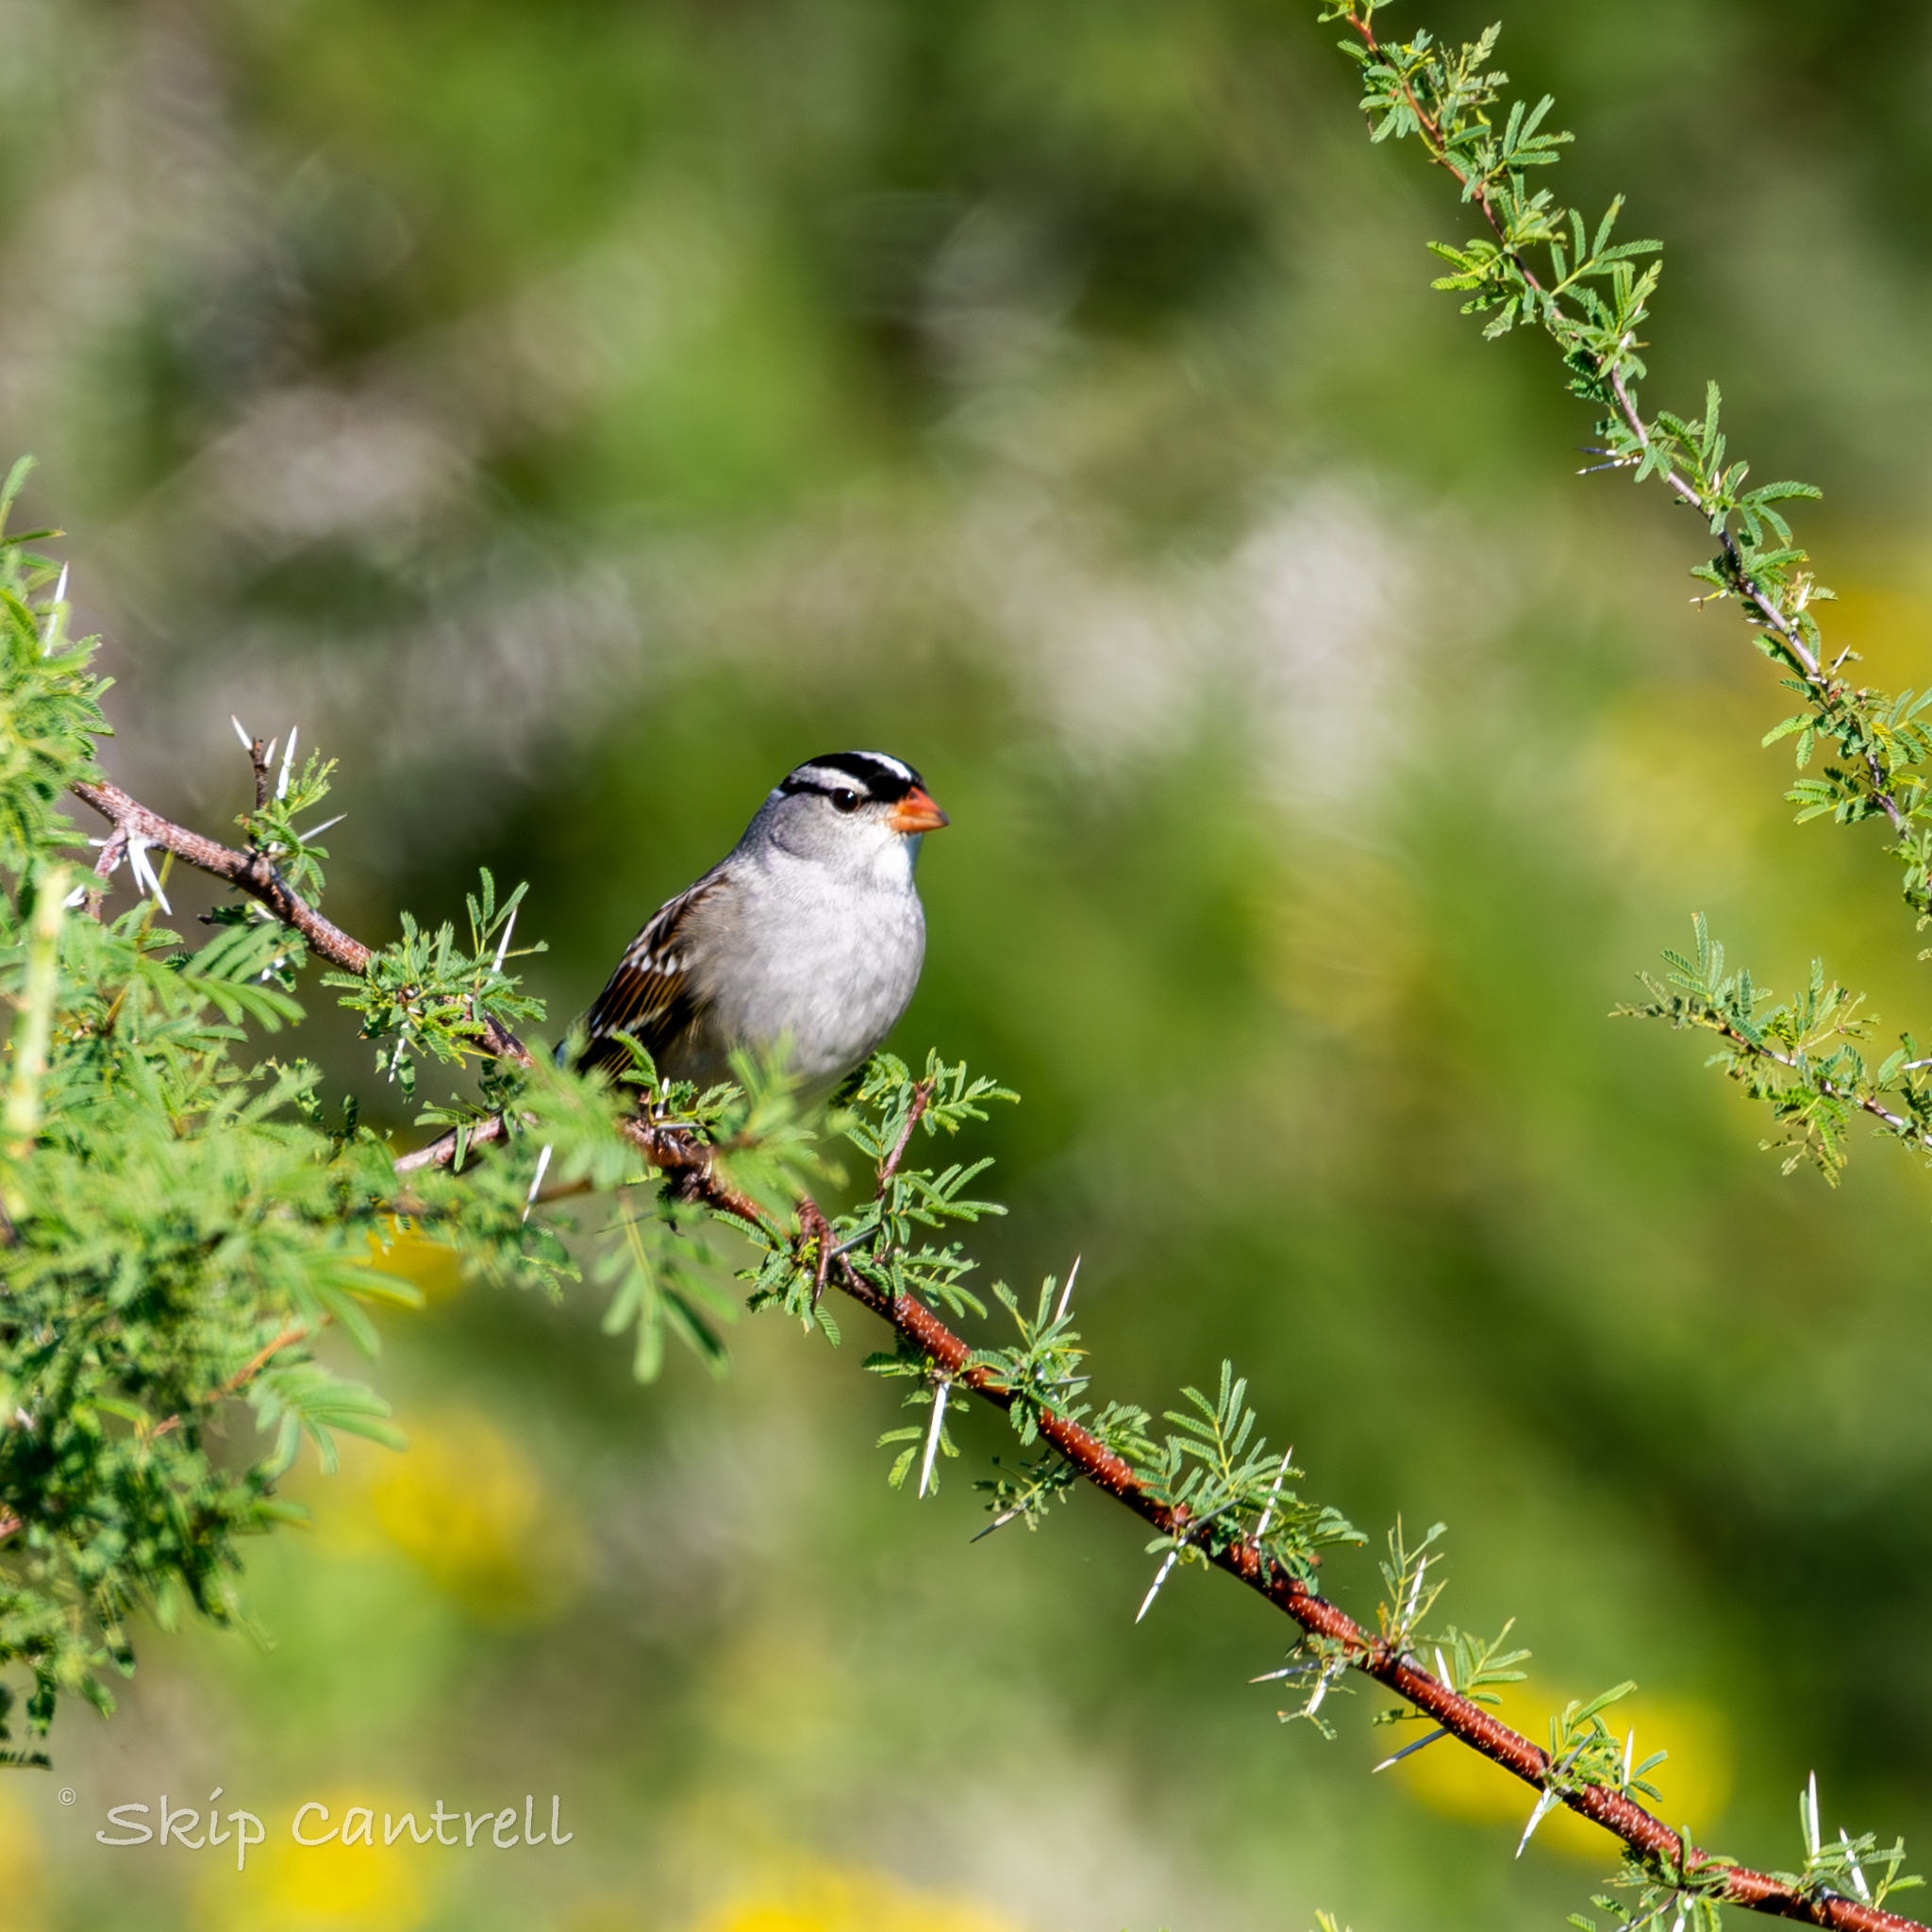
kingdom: Animalia
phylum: Chordata
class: Aves
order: Passeriformes
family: Passerellidae
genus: Zonotrichia
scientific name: Zonotrichia leucophrys
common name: White-crowned sparrow
